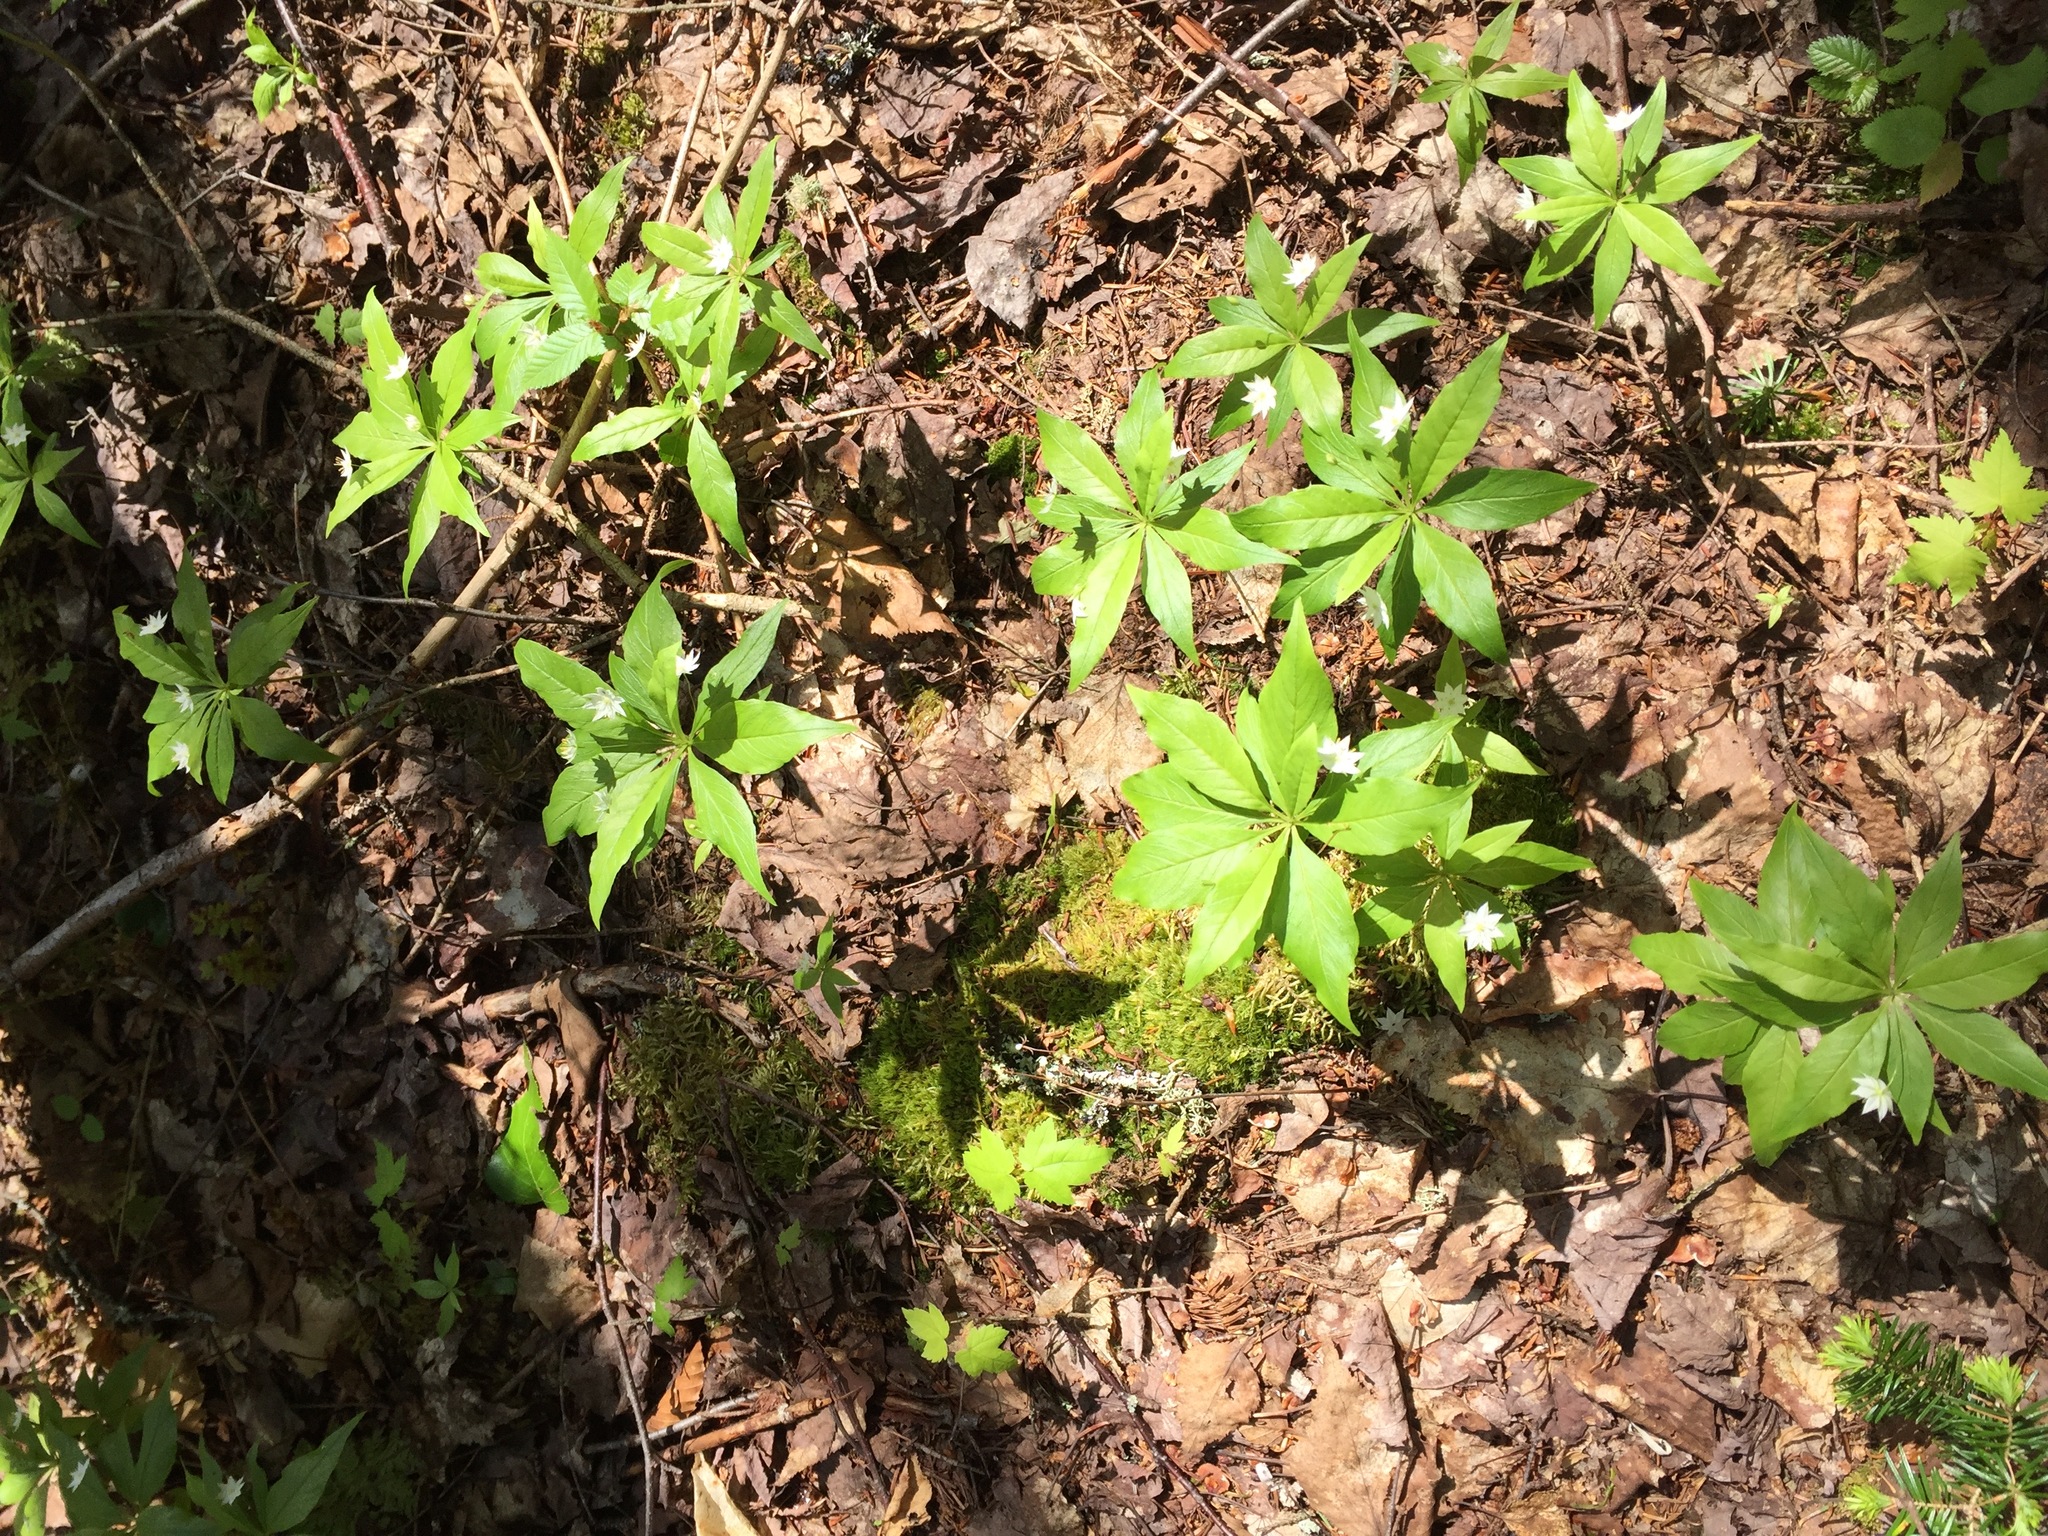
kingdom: Plantae
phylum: Tracheophyta
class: Magnoliopsida
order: Ericales
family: Primulaceae
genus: Lysimachia
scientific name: Lysimachia borealis
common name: American starflower
